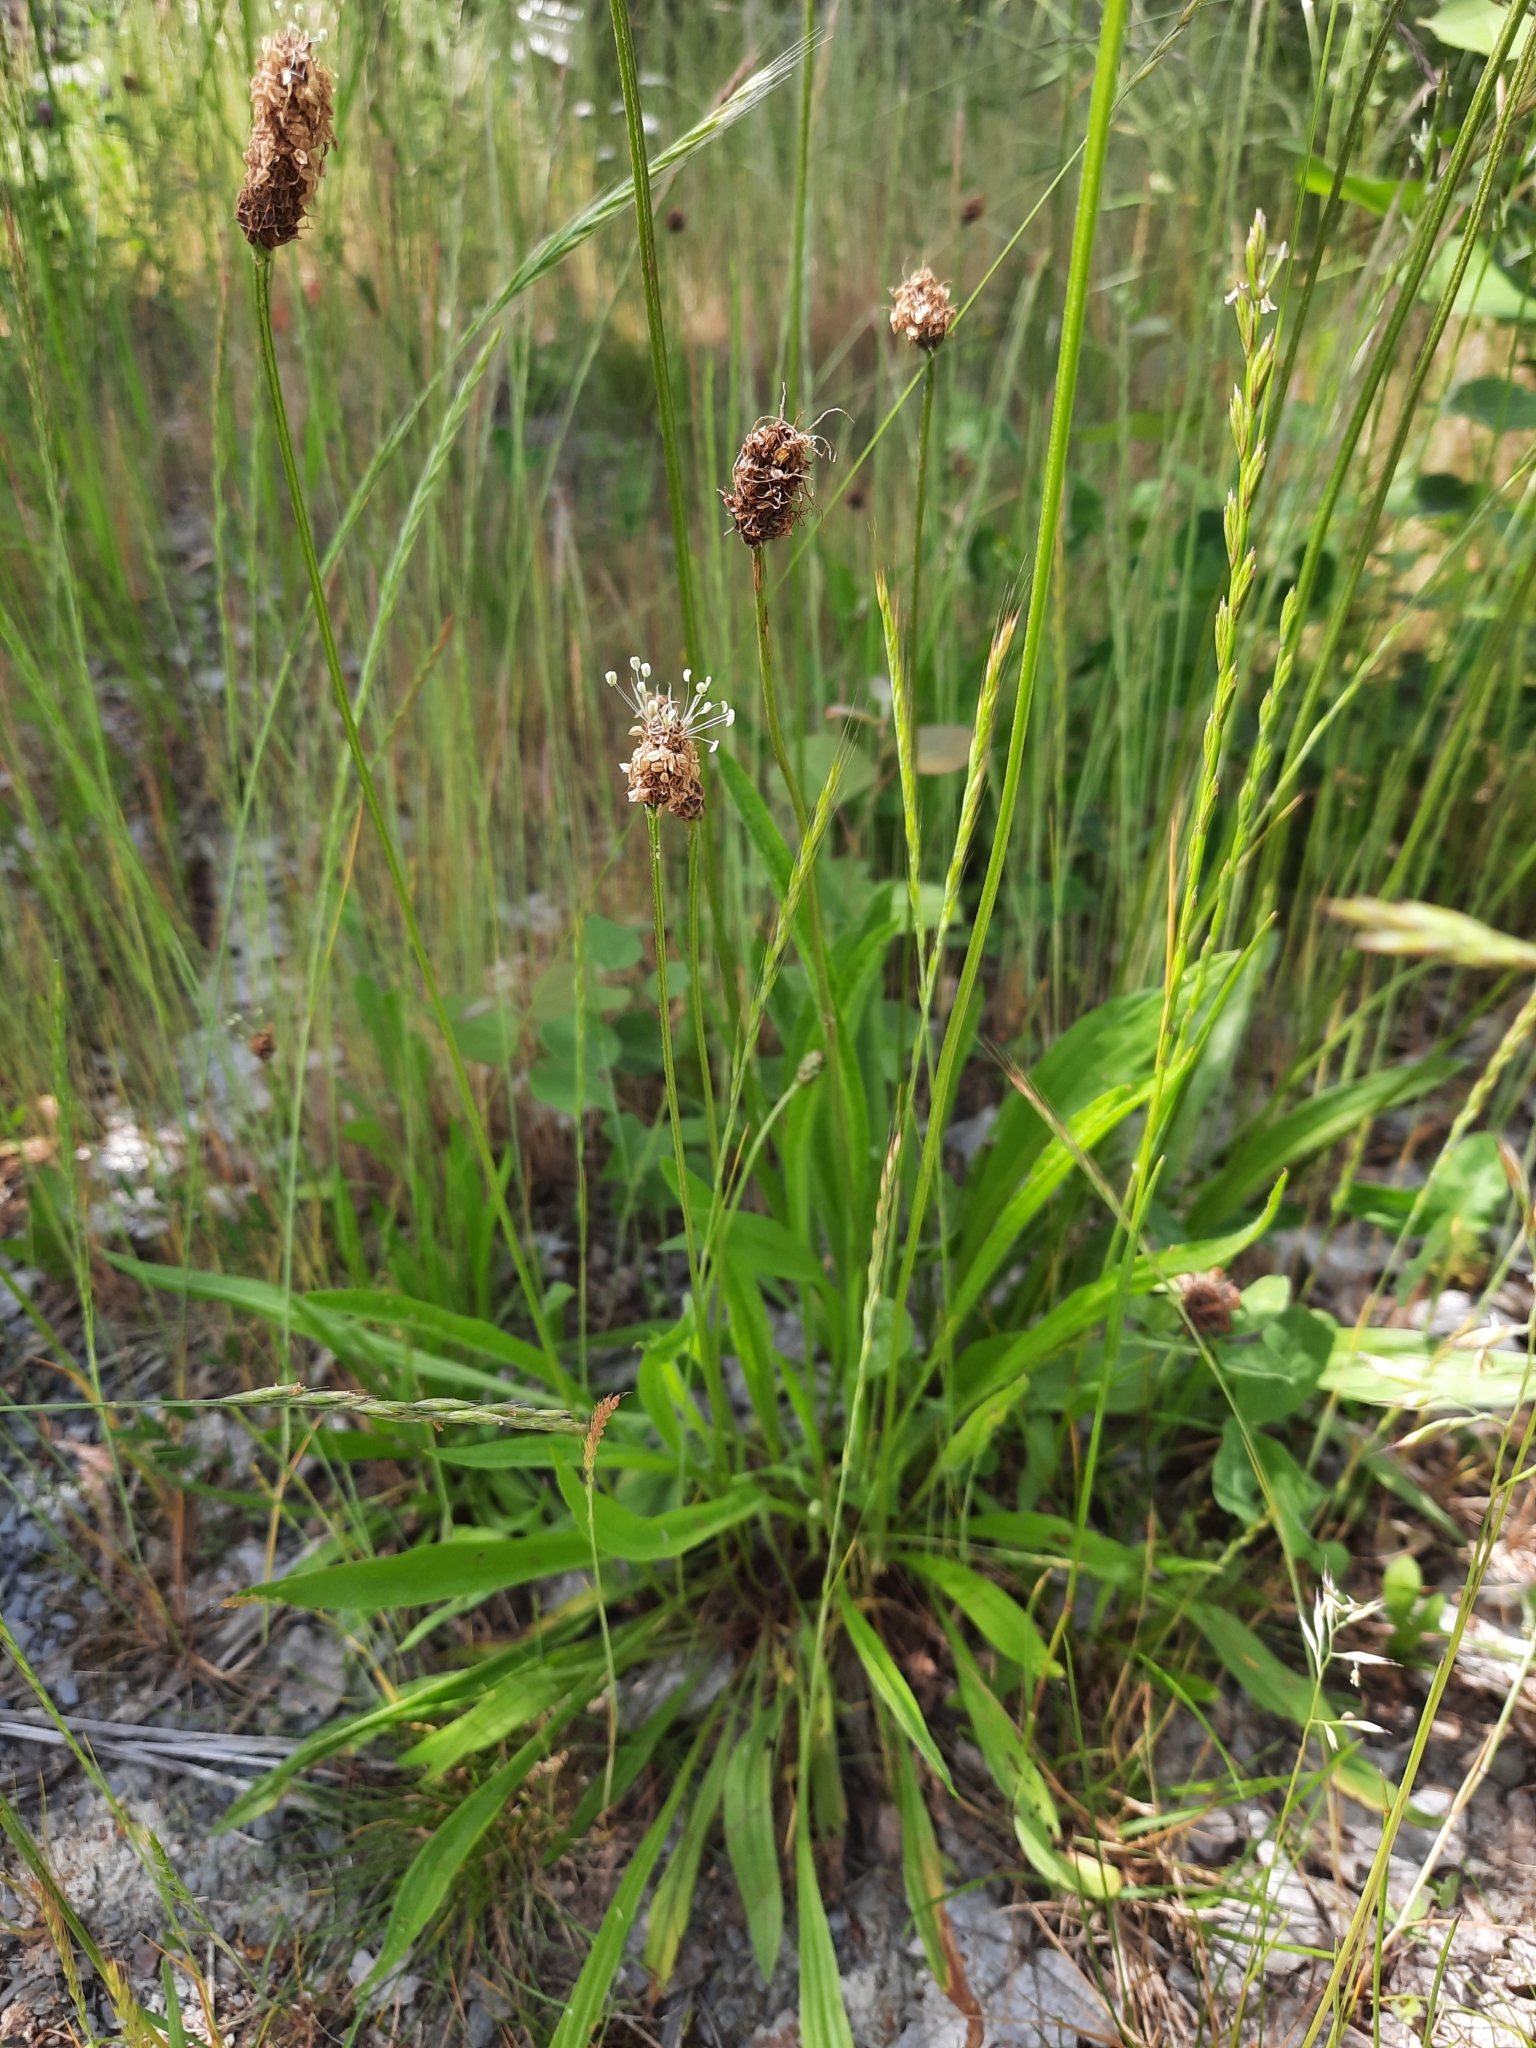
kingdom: Plantae
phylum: Tracheophyta
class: Magnoliopsida
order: Lamiales
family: Plantaginaceae
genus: Plantago
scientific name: Plantago lanceolata
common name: Ribwort plantain
